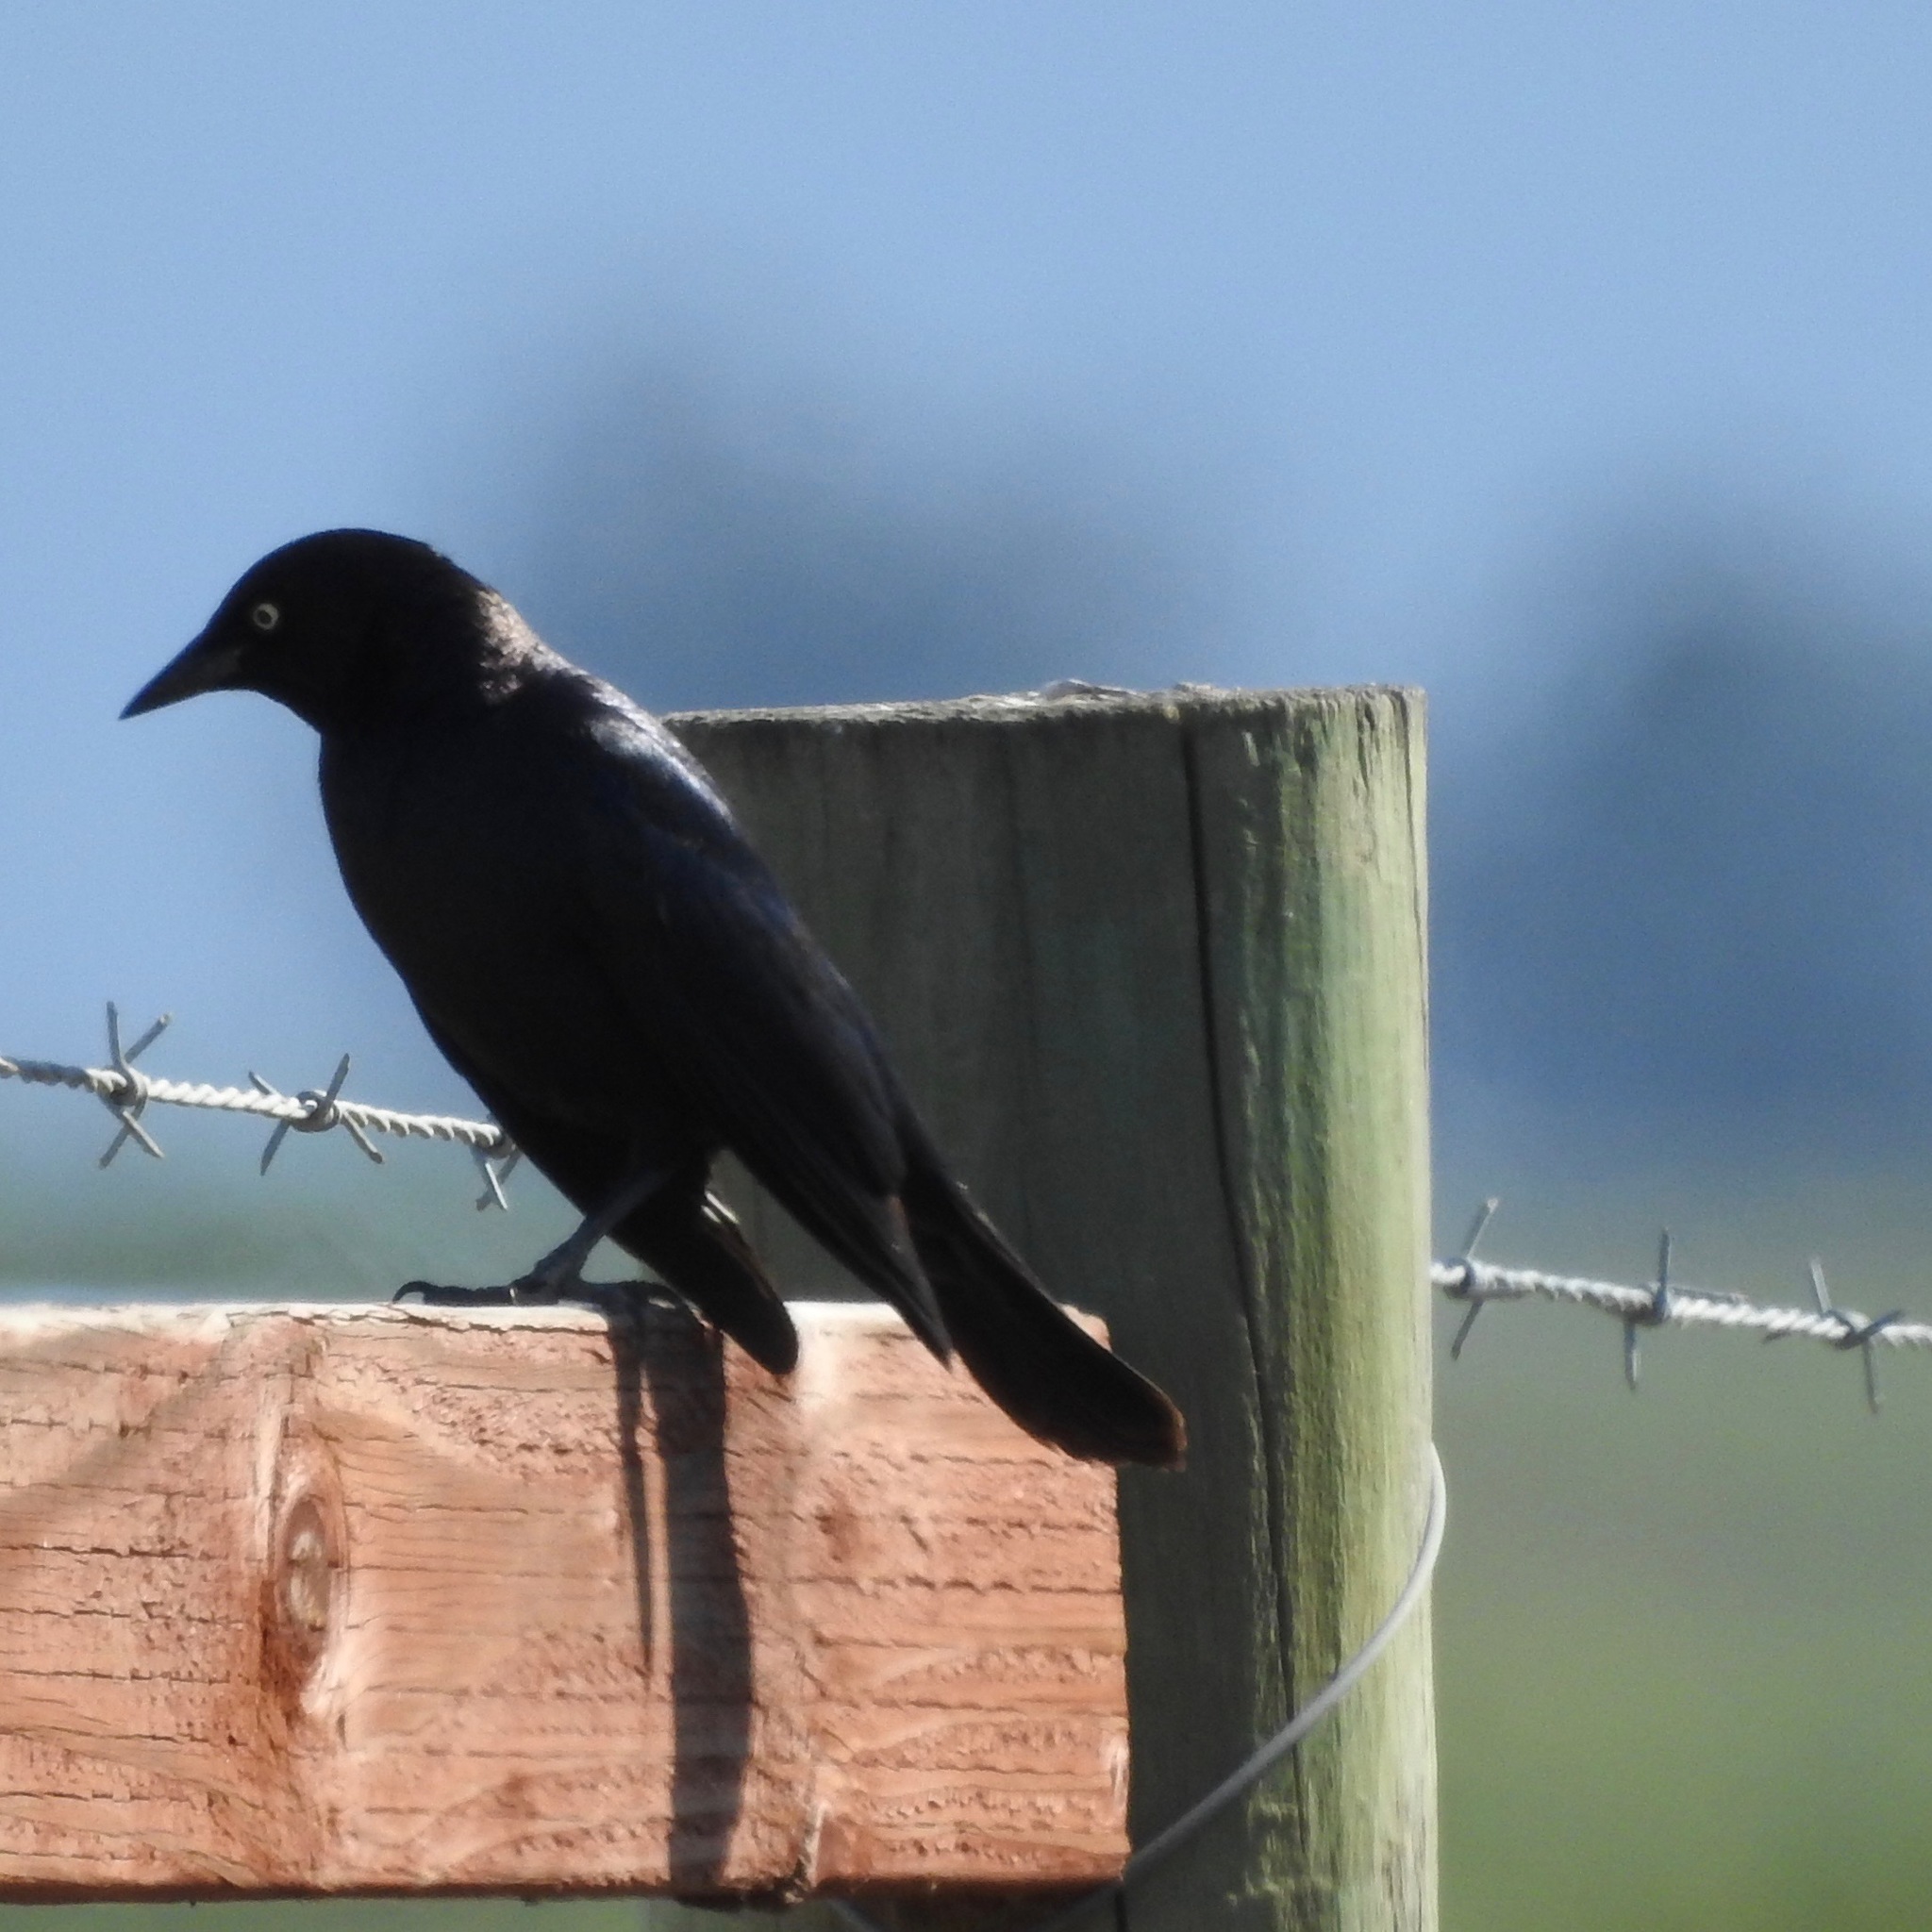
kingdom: Animalia
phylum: Chordata
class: Aves
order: Passeriformes
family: Icteridae
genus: Euphagus
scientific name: Euphagus cyanocephalus
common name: Brewer's blackbird
